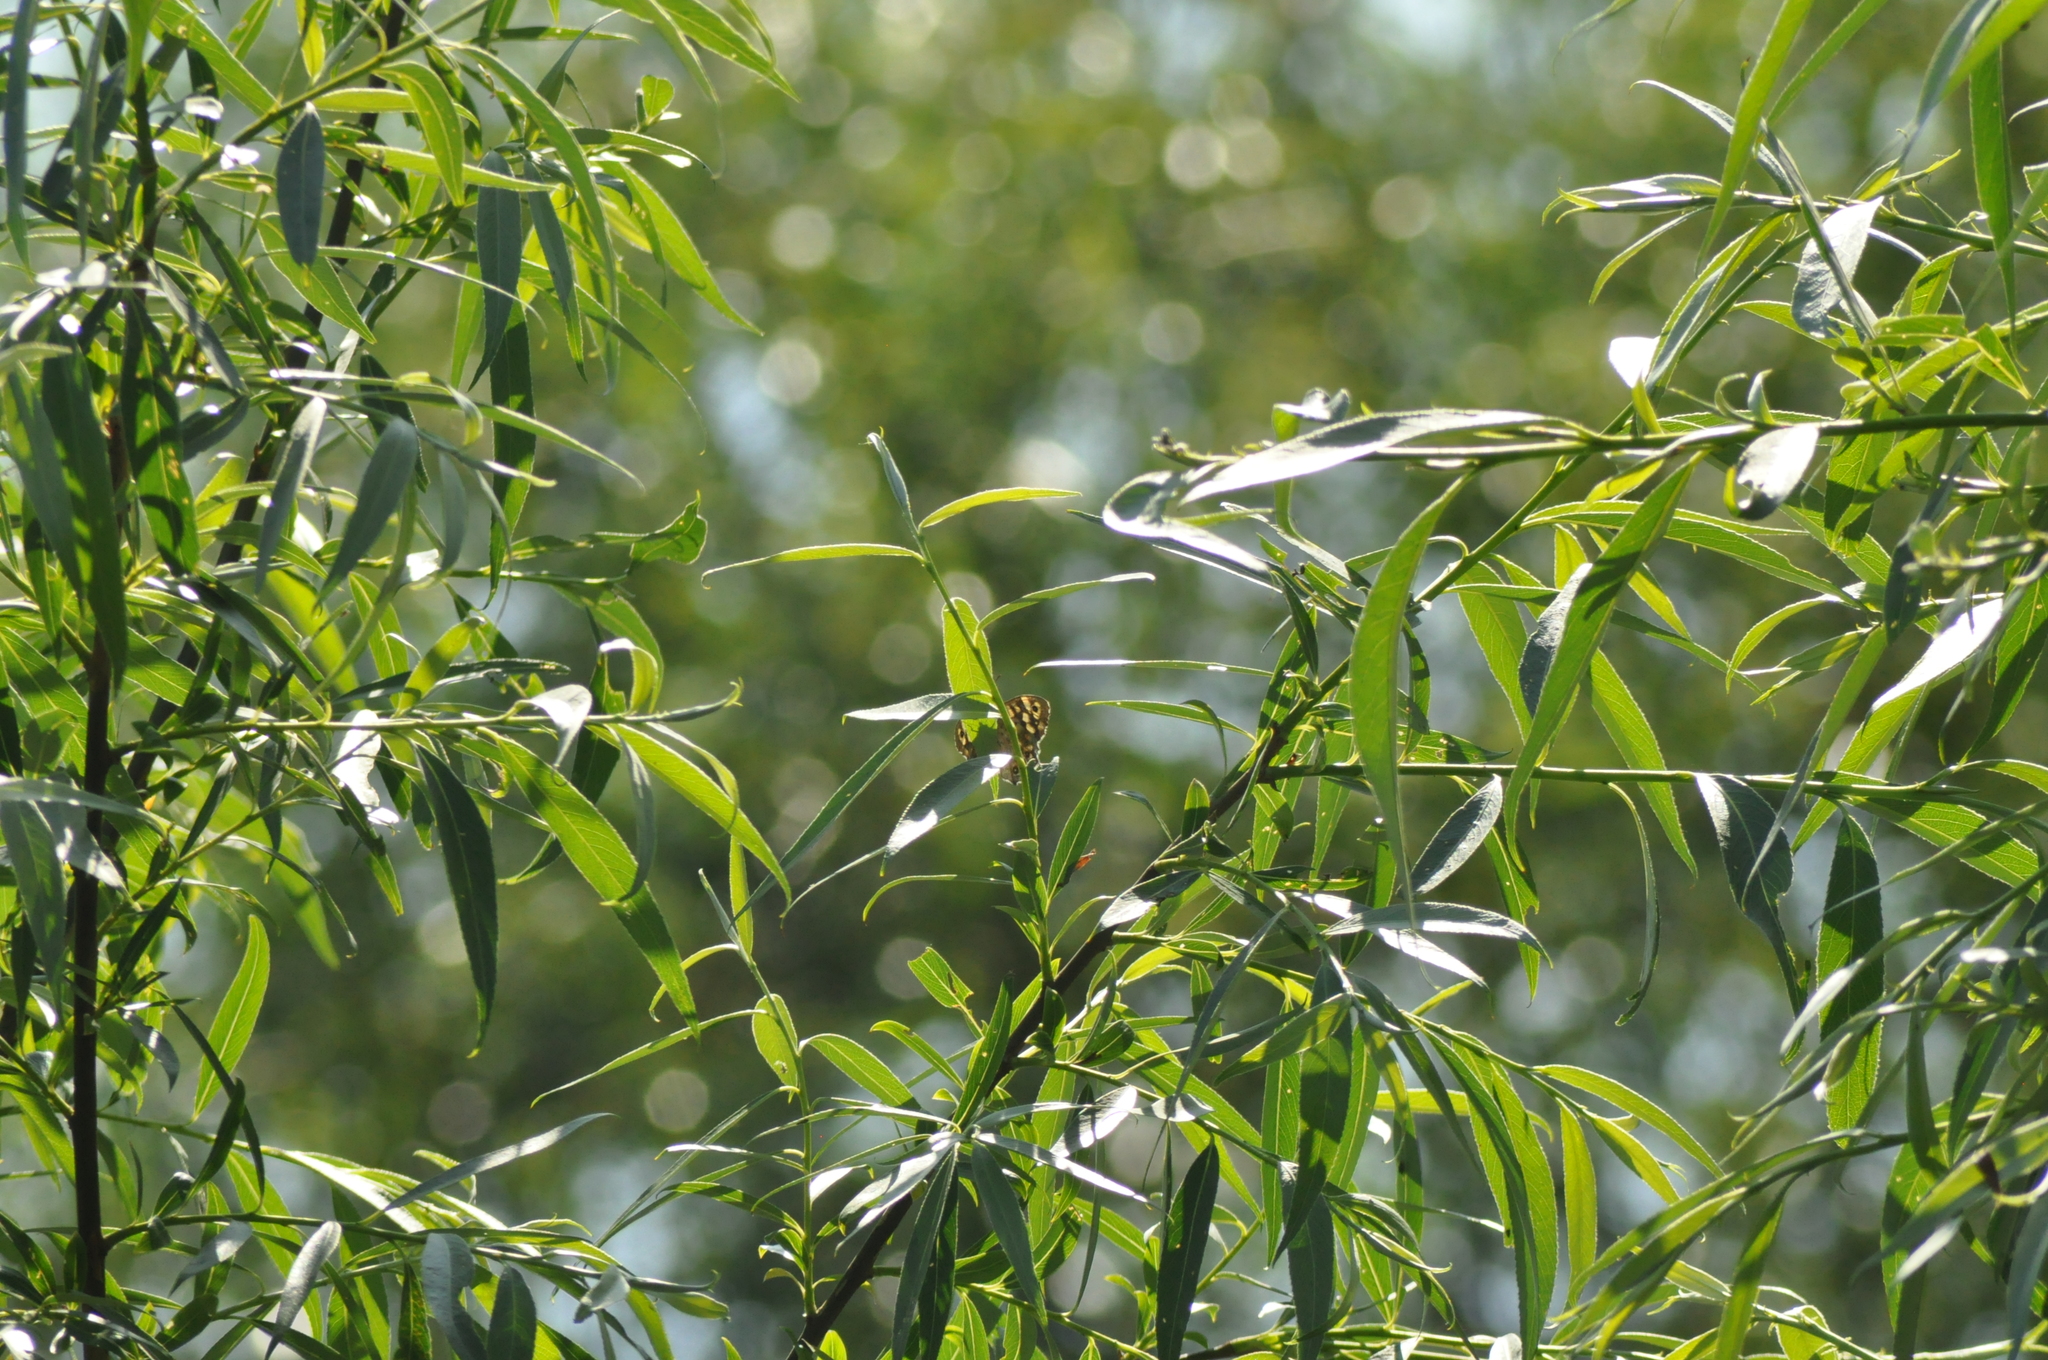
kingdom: Animalia
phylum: Arthropoda
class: Insecta
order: Lepidoptera
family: Nymphalidae
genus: Pararge
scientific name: Pararge aegeria
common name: Speckled wood
